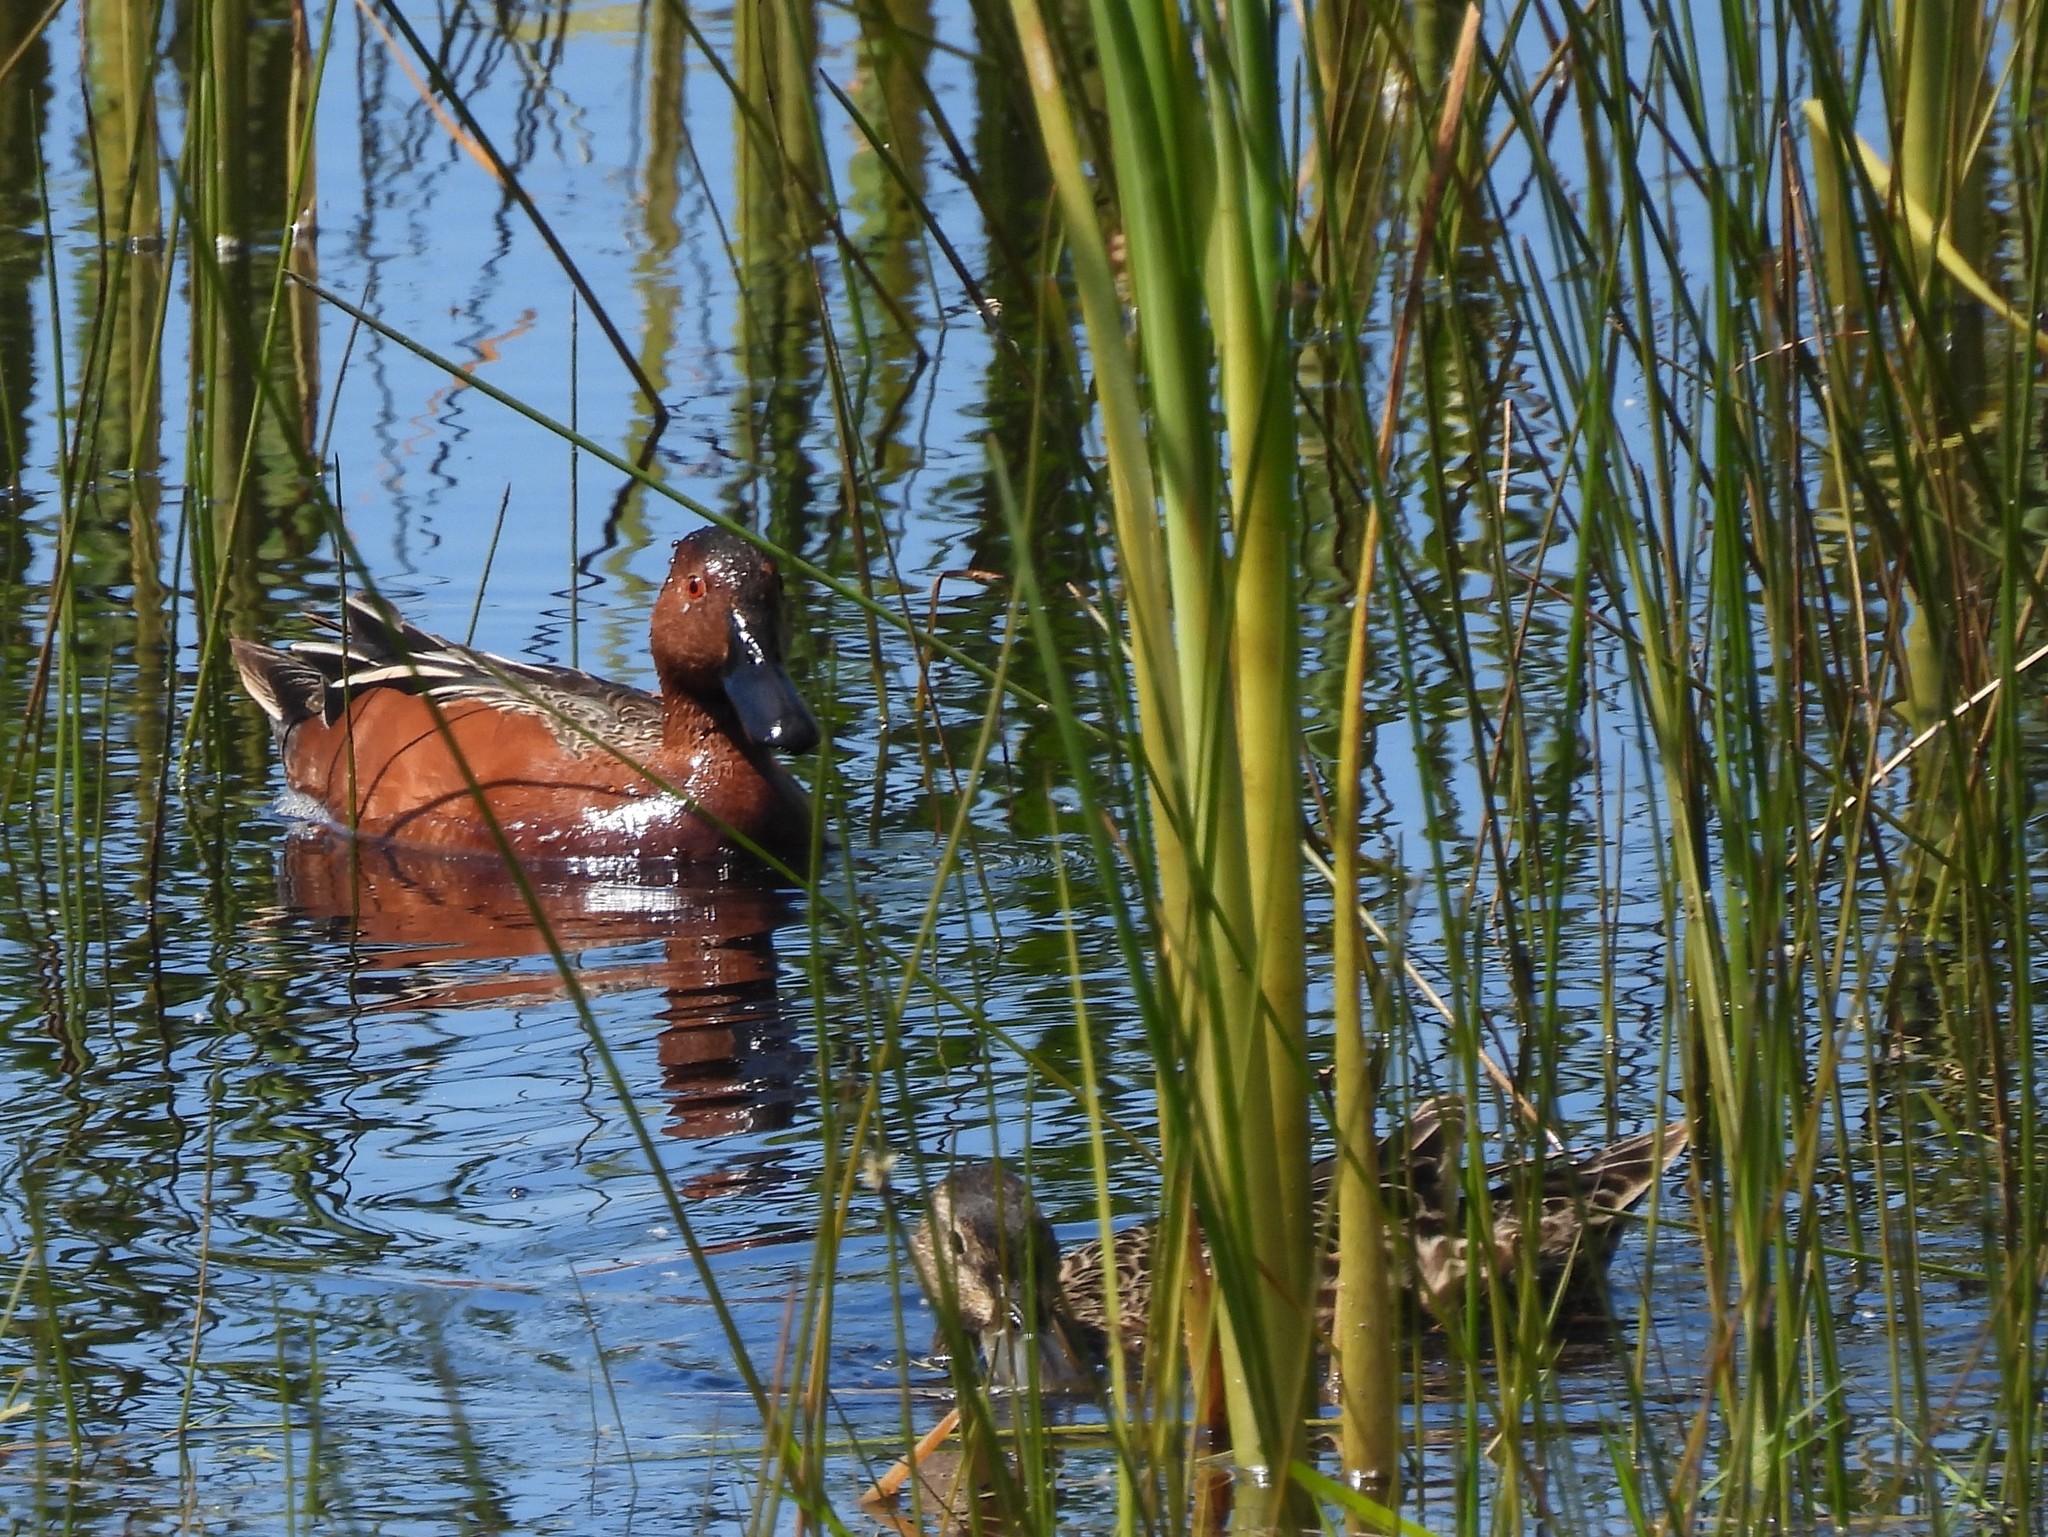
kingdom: Animalia
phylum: Chordata
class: Aves
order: Anseriformes
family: Anatidae
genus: Spatula
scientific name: Spatula cyanoptera
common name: Cinnamon teal
